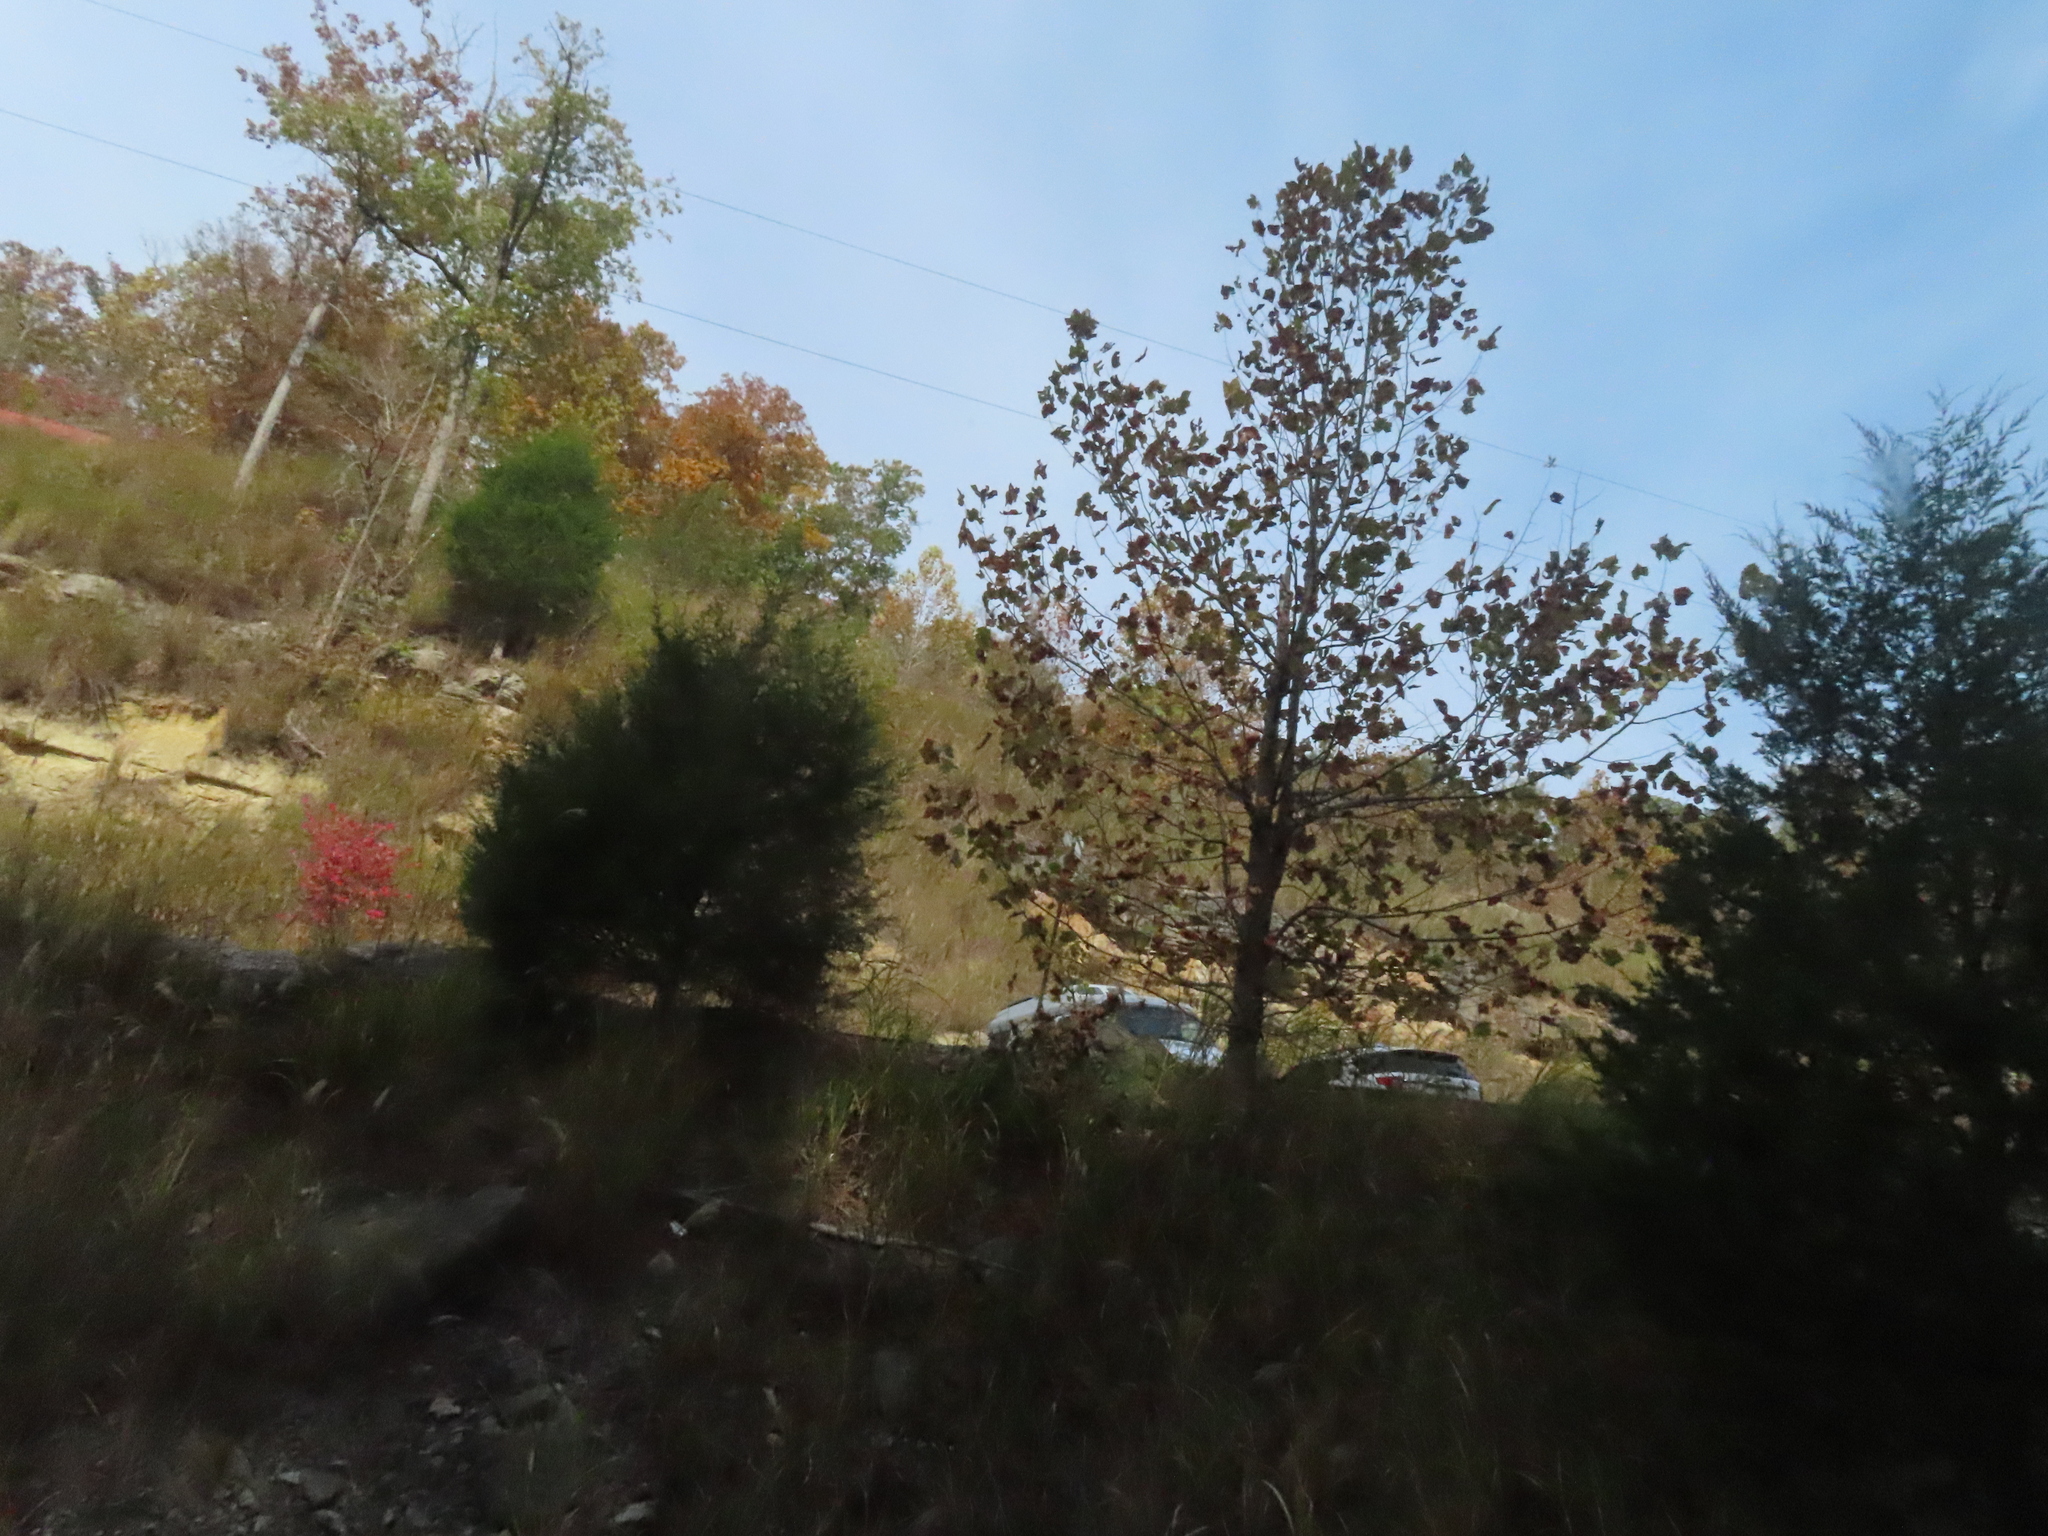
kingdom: Plantae
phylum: Tracheophyta
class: Pinopsida
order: Pinales
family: Cupressaceae
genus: Juniperus
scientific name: Juniperus virginiana
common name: Red juniper
